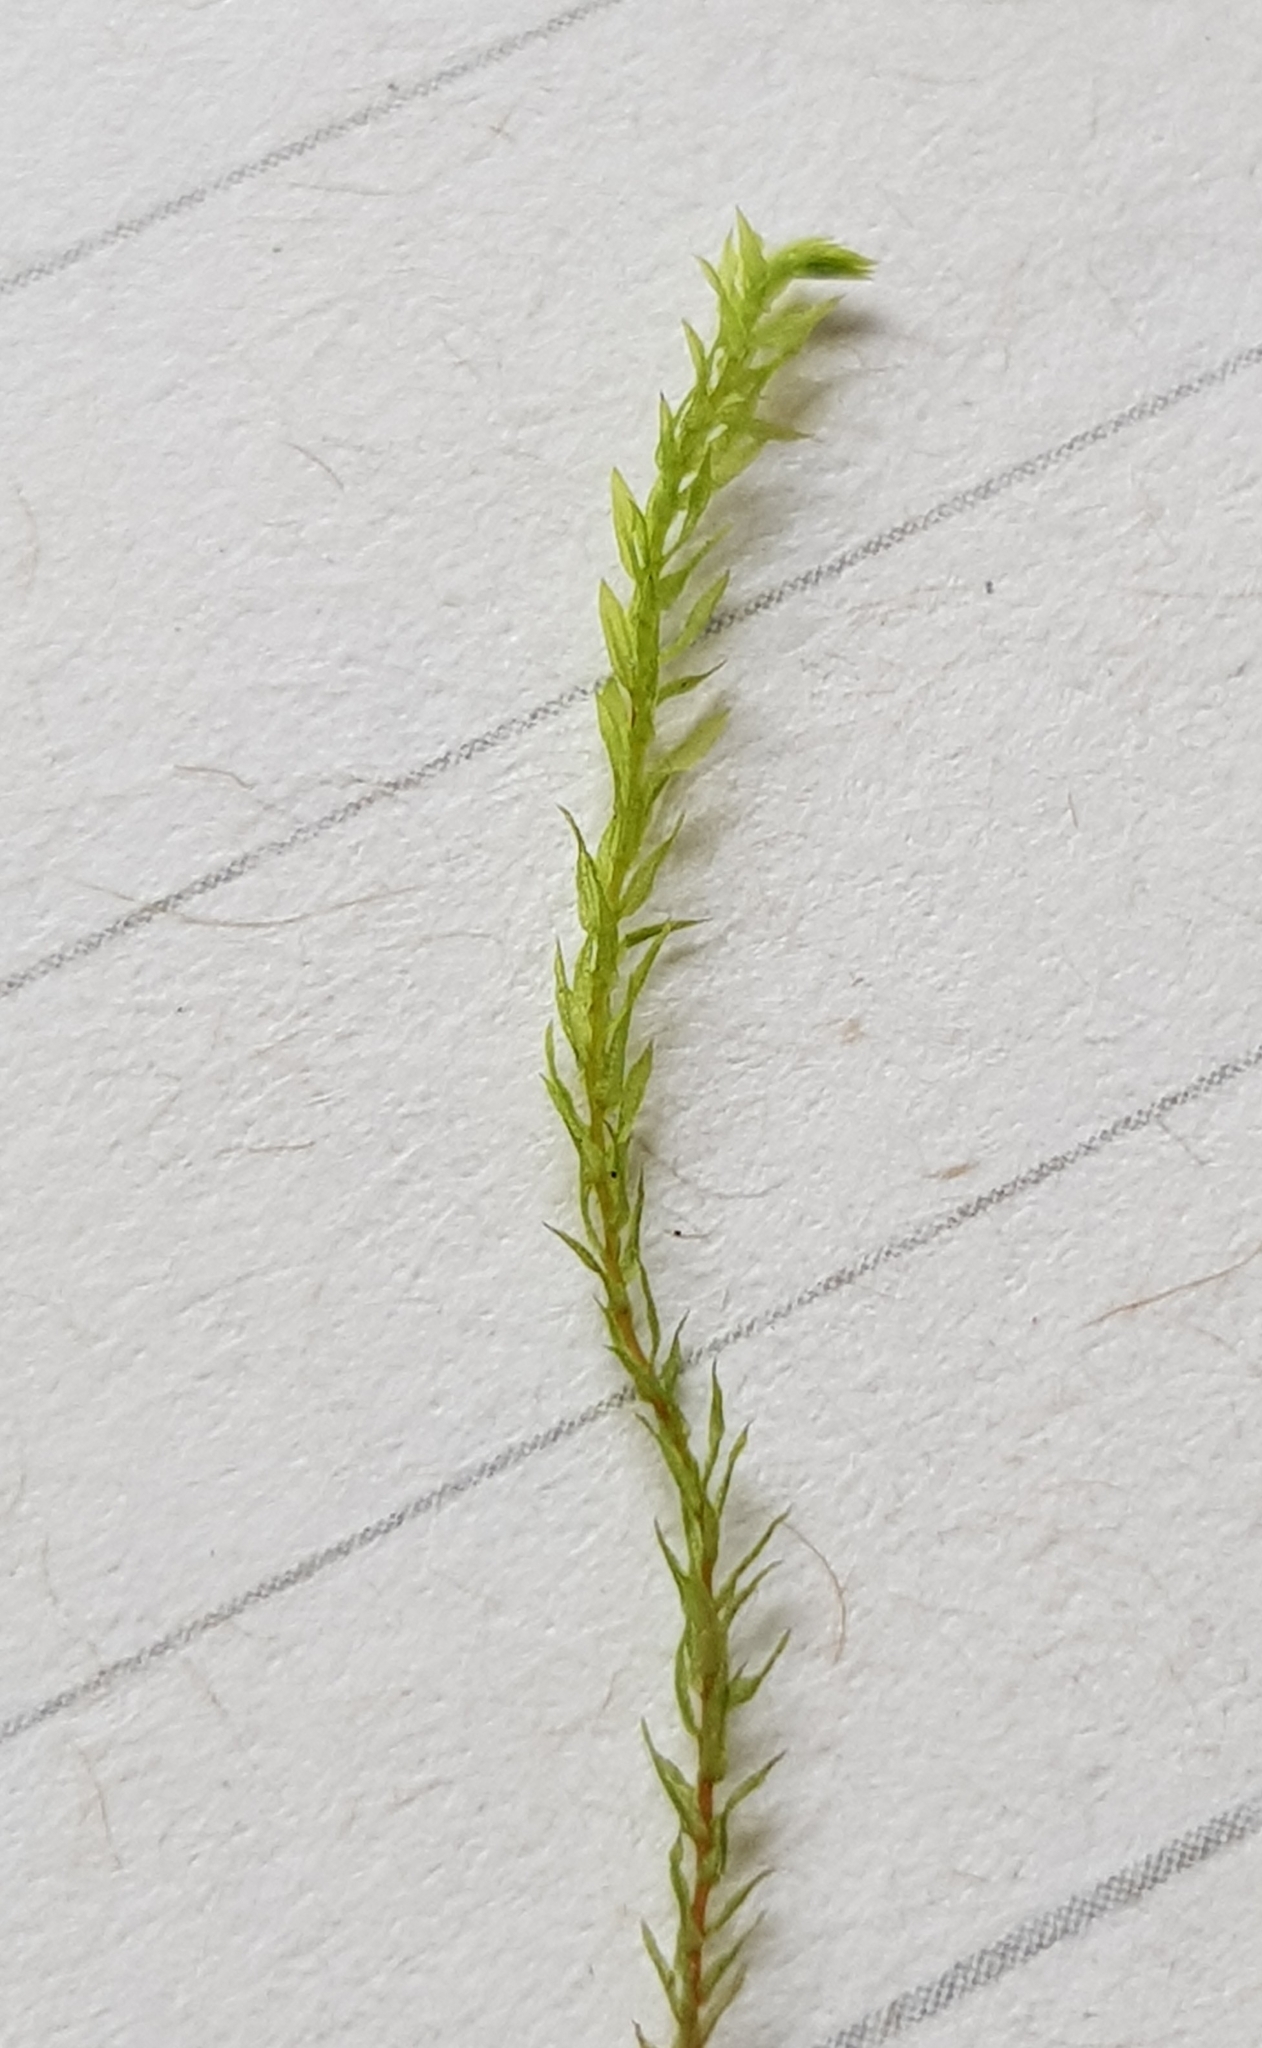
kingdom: Plantae
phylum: Bryophyta
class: Bryopsida
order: Bryales
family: Mniaceae
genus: Pohlia
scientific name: Pohlia melanodon
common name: Black-toothed nodding moss
